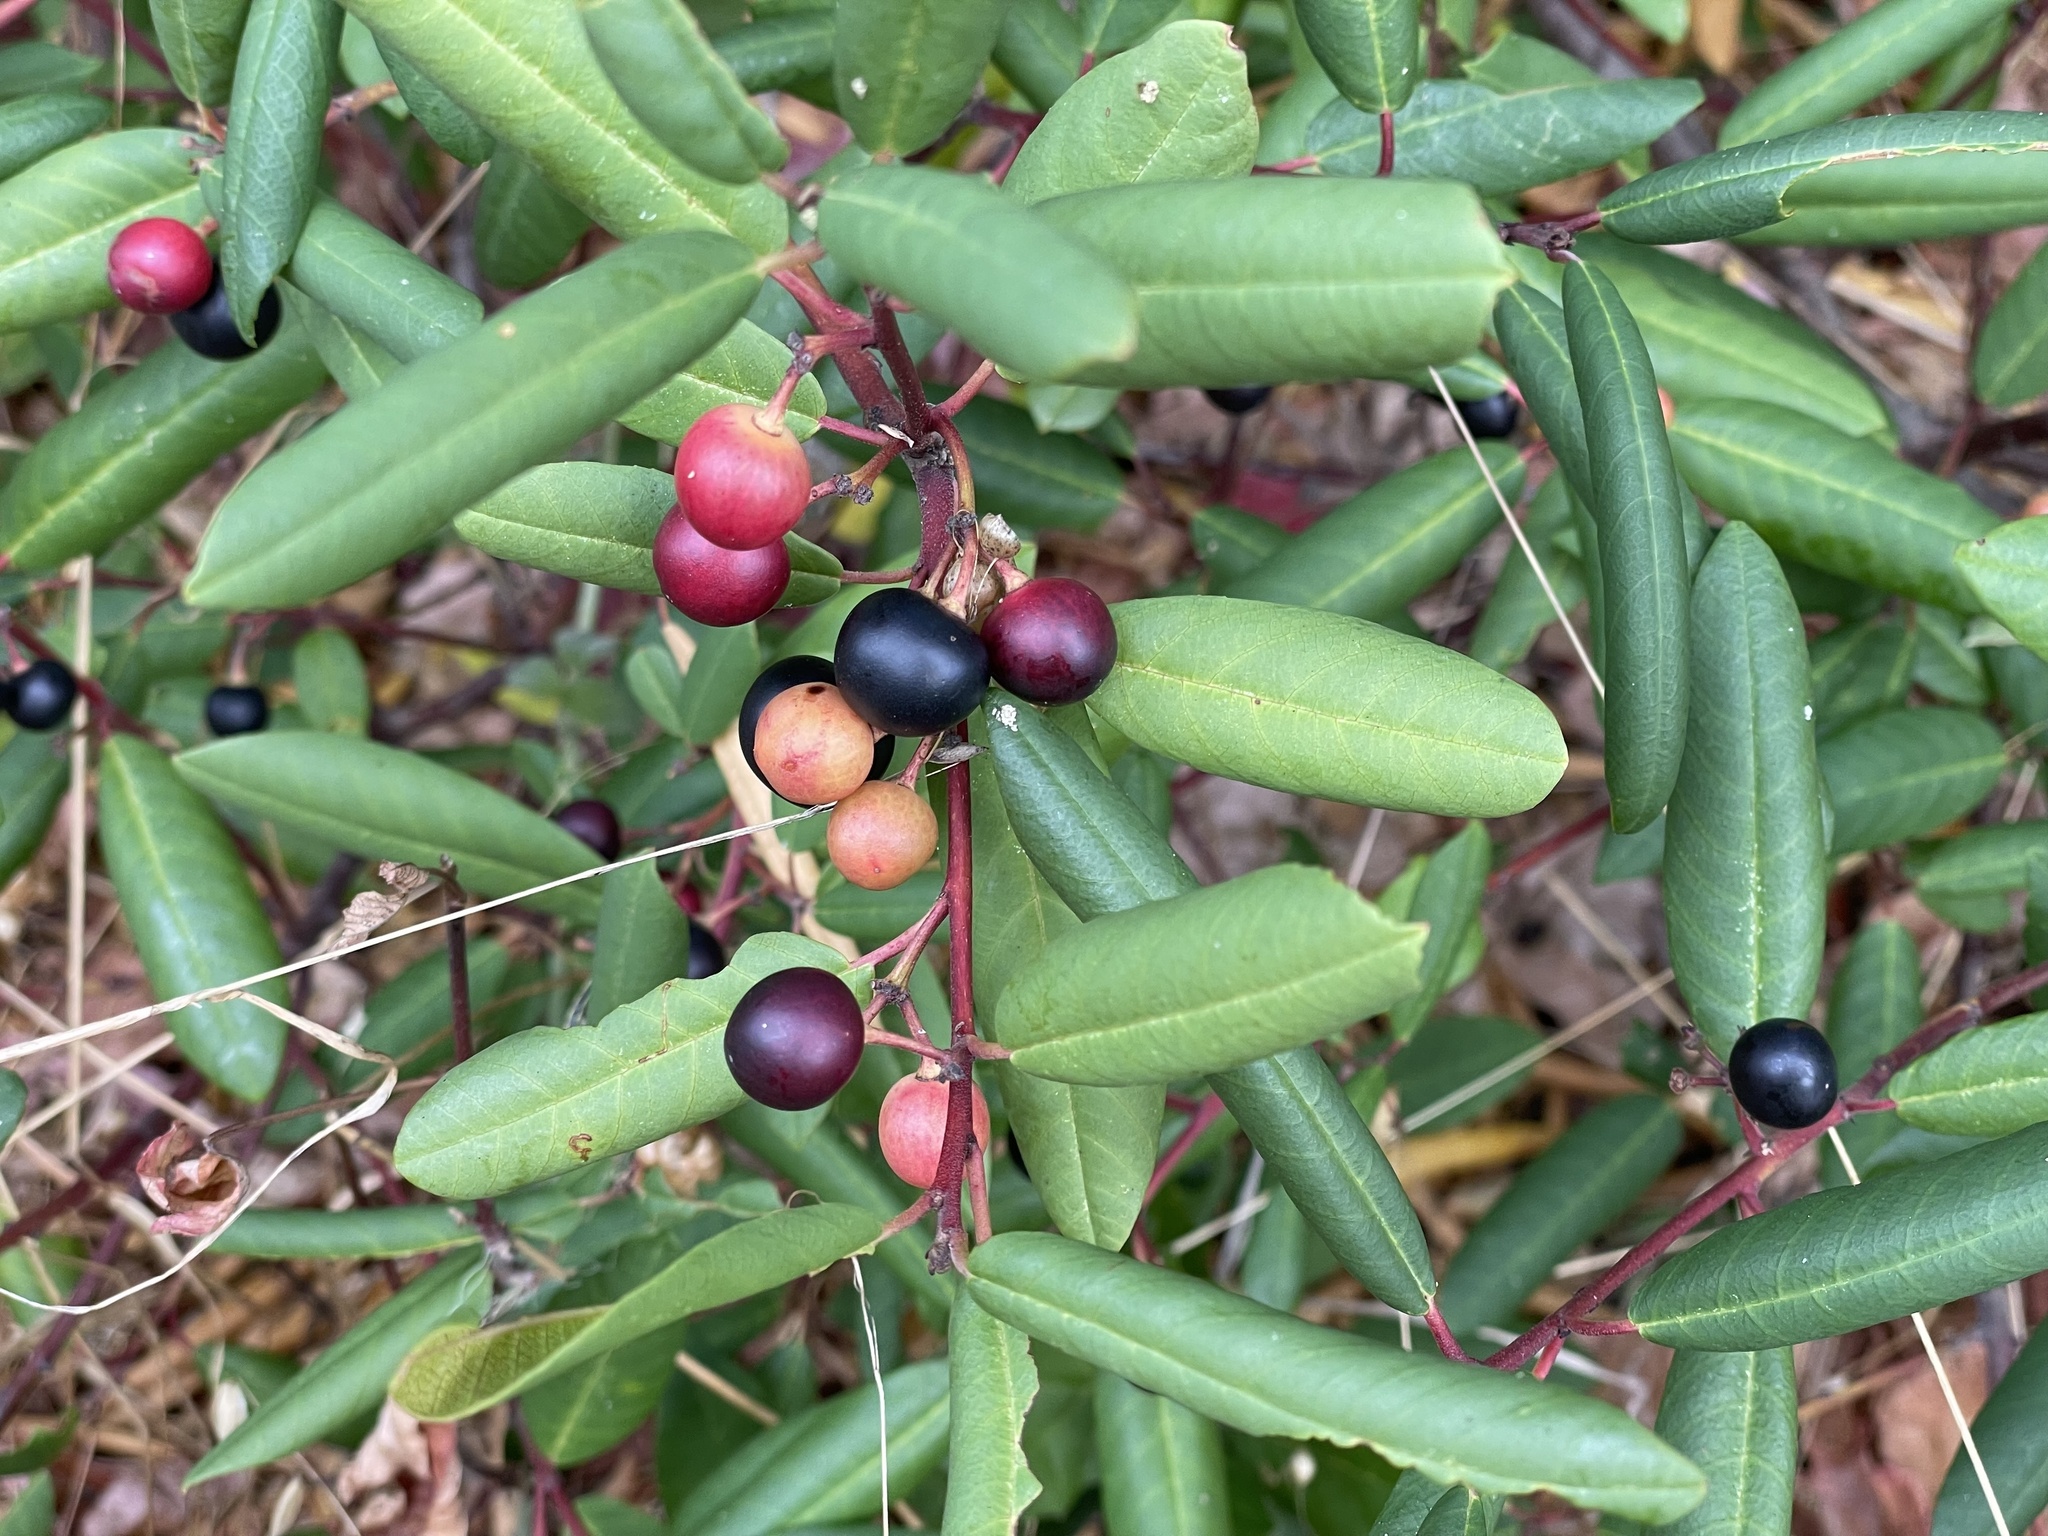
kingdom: Plantae
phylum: Tracheophyta
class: Magnoliopsida
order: Rosales
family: Rhamnaceae
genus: Frangula
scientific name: Frangula californica
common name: California buckthorn
